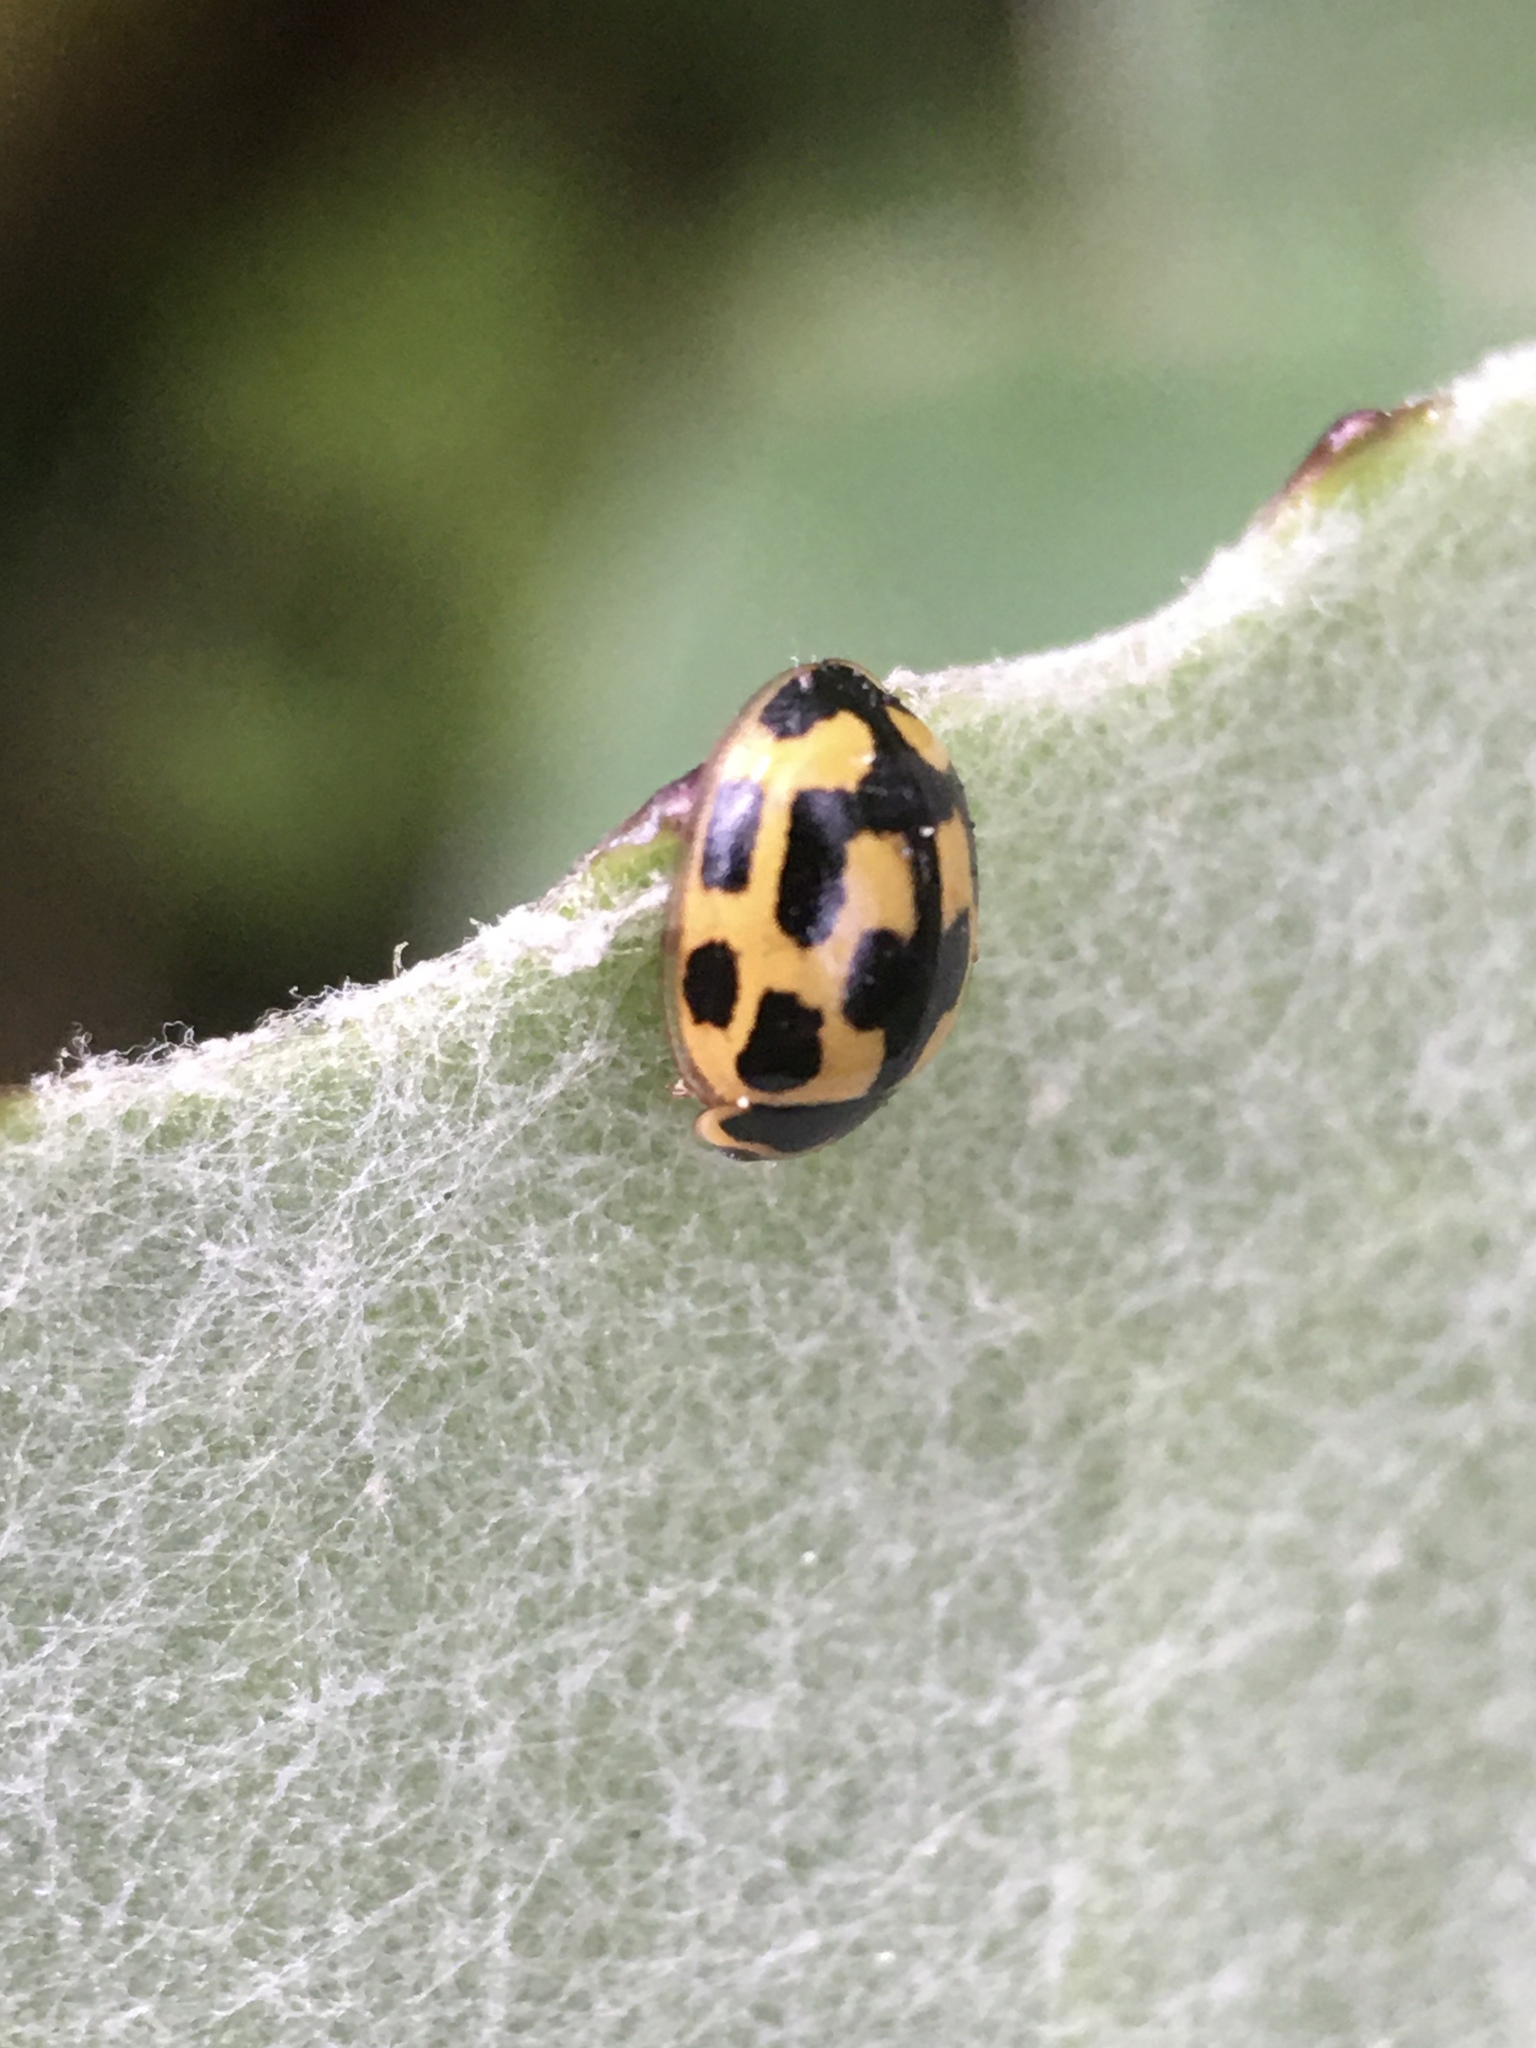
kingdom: Animalia
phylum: Arthropoda
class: Insecta
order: Coleoptera
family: Coccinellidae
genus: Propylaea
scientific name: Propylaea quatuordecimpunctata
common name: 14-spotted ladybird beetle
